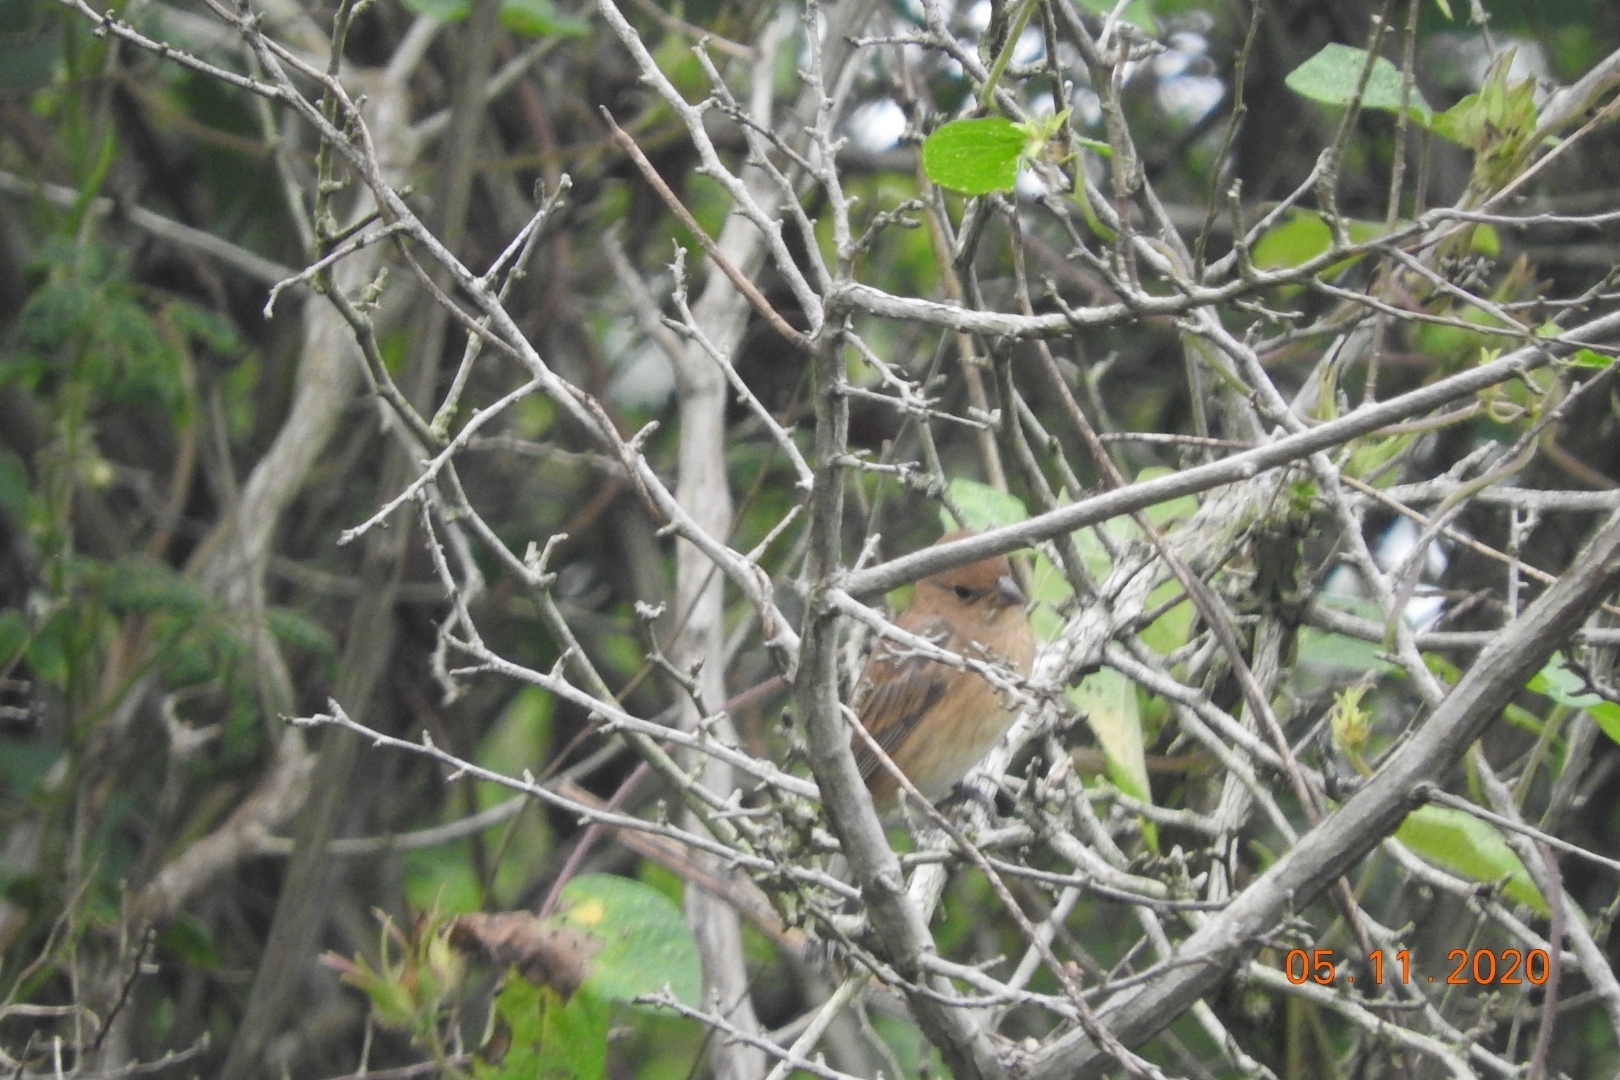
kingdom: Animalia
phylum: Chordata
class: Aves
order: Passeriformes
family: Cardinalidae
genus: Passerina
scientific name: Passerina cyanea
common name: Indigo bunting
